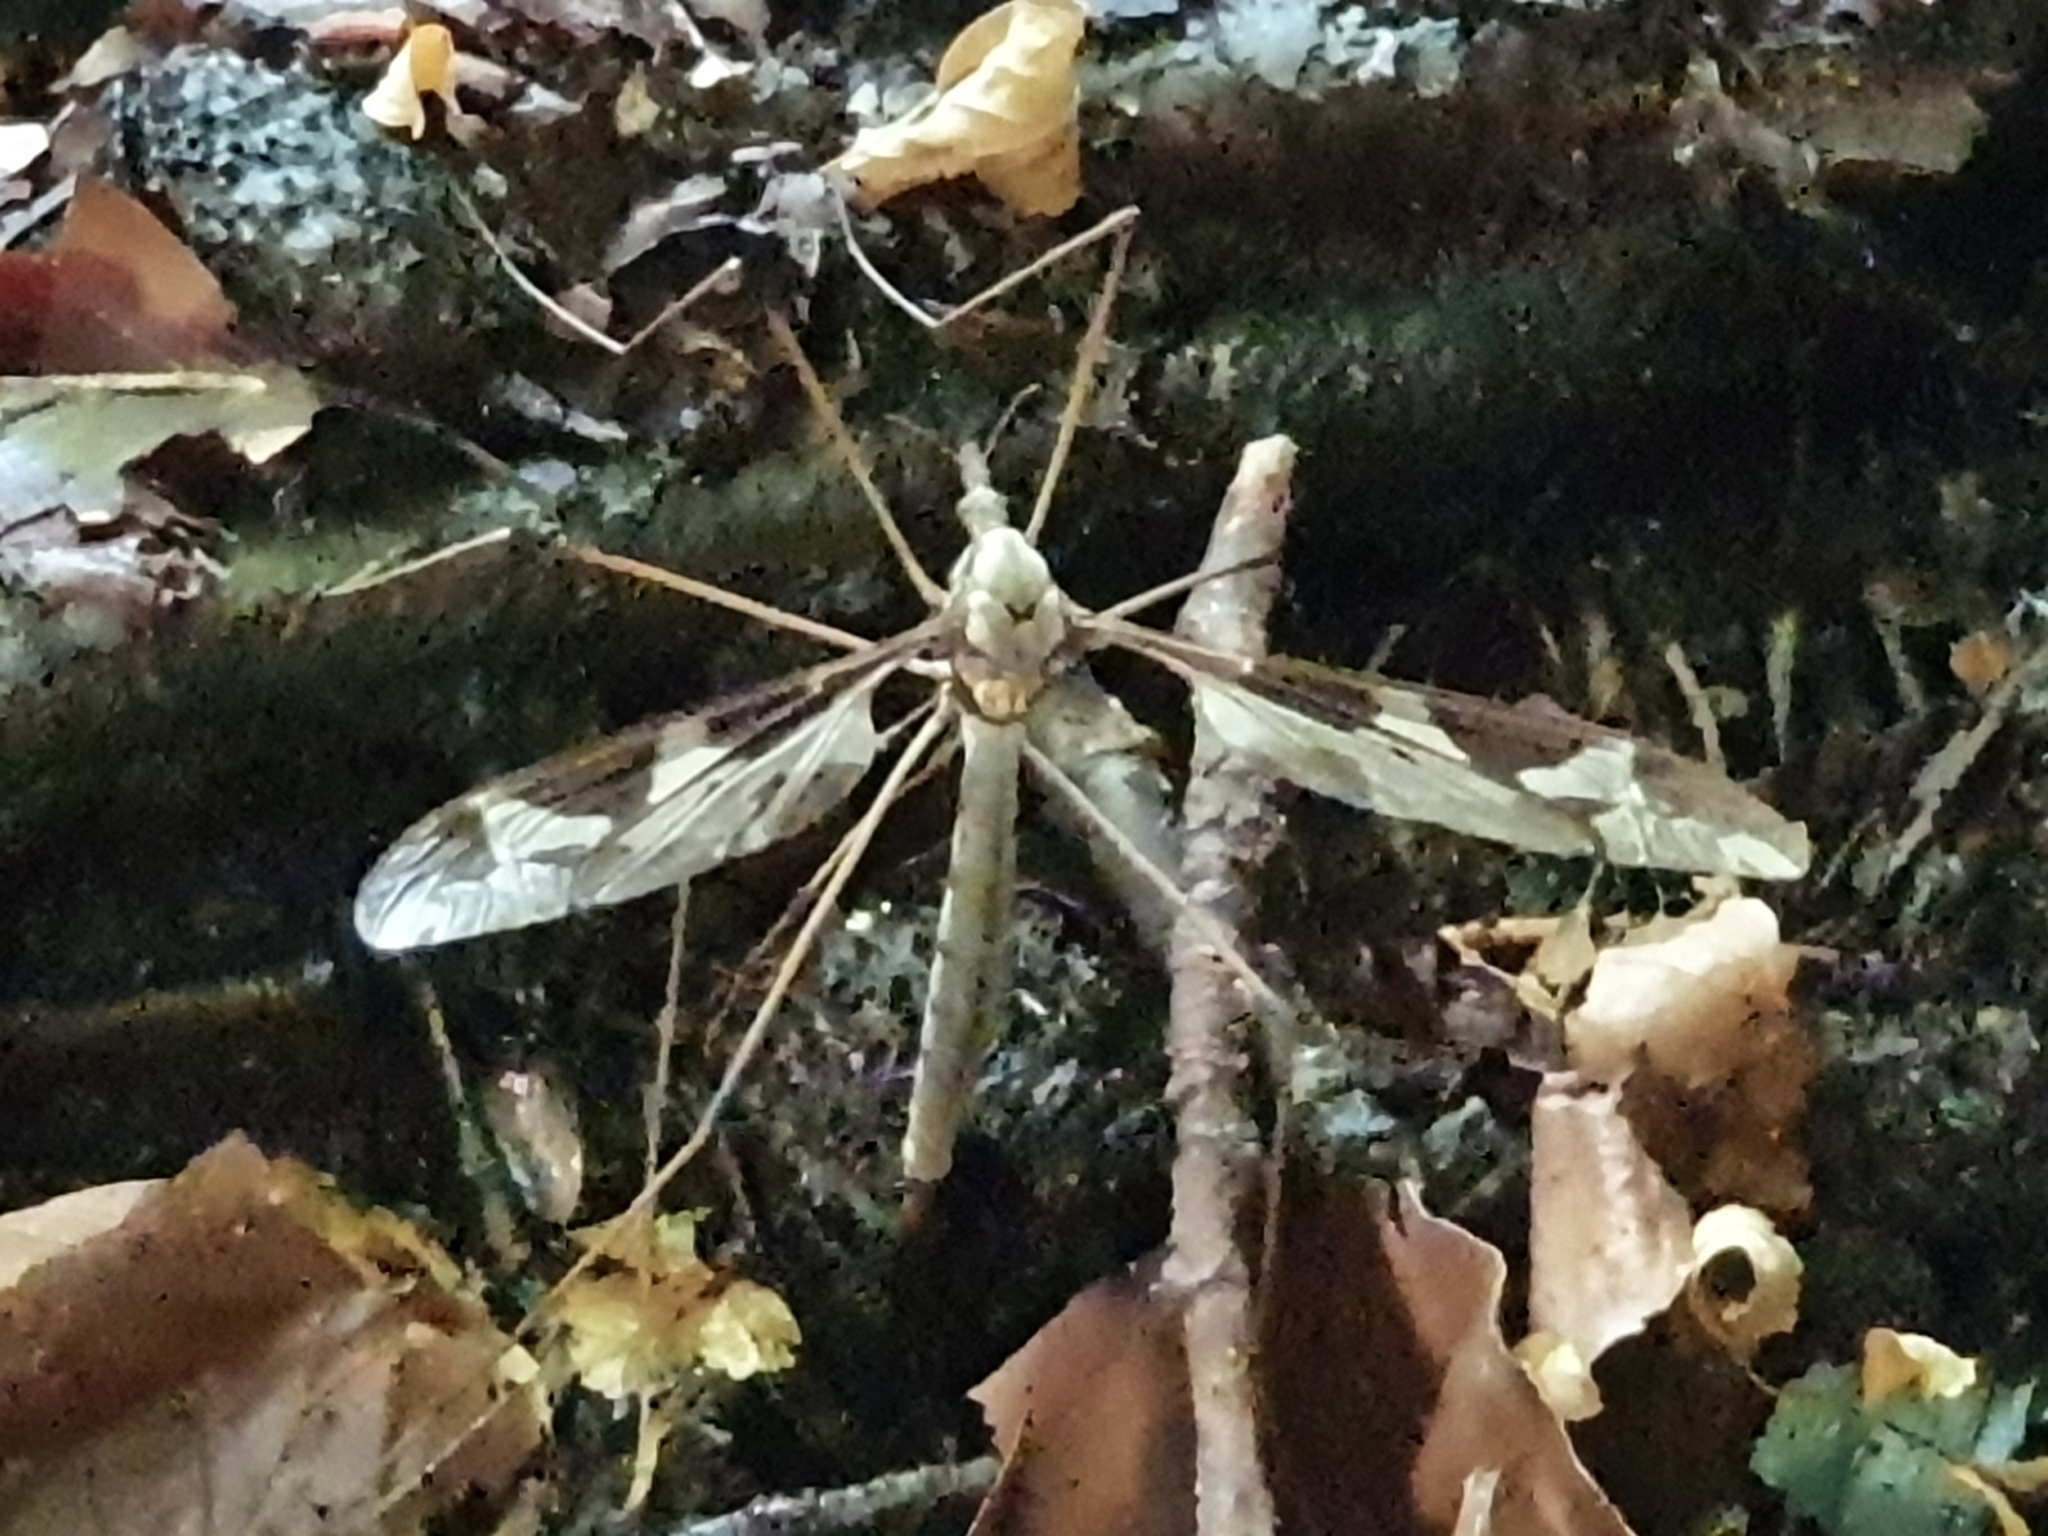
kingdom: Animalia
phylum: Arthropoda
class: Insecta
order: Diptera
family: Tipulidae
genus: Tipula
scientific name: Tipula maxima
